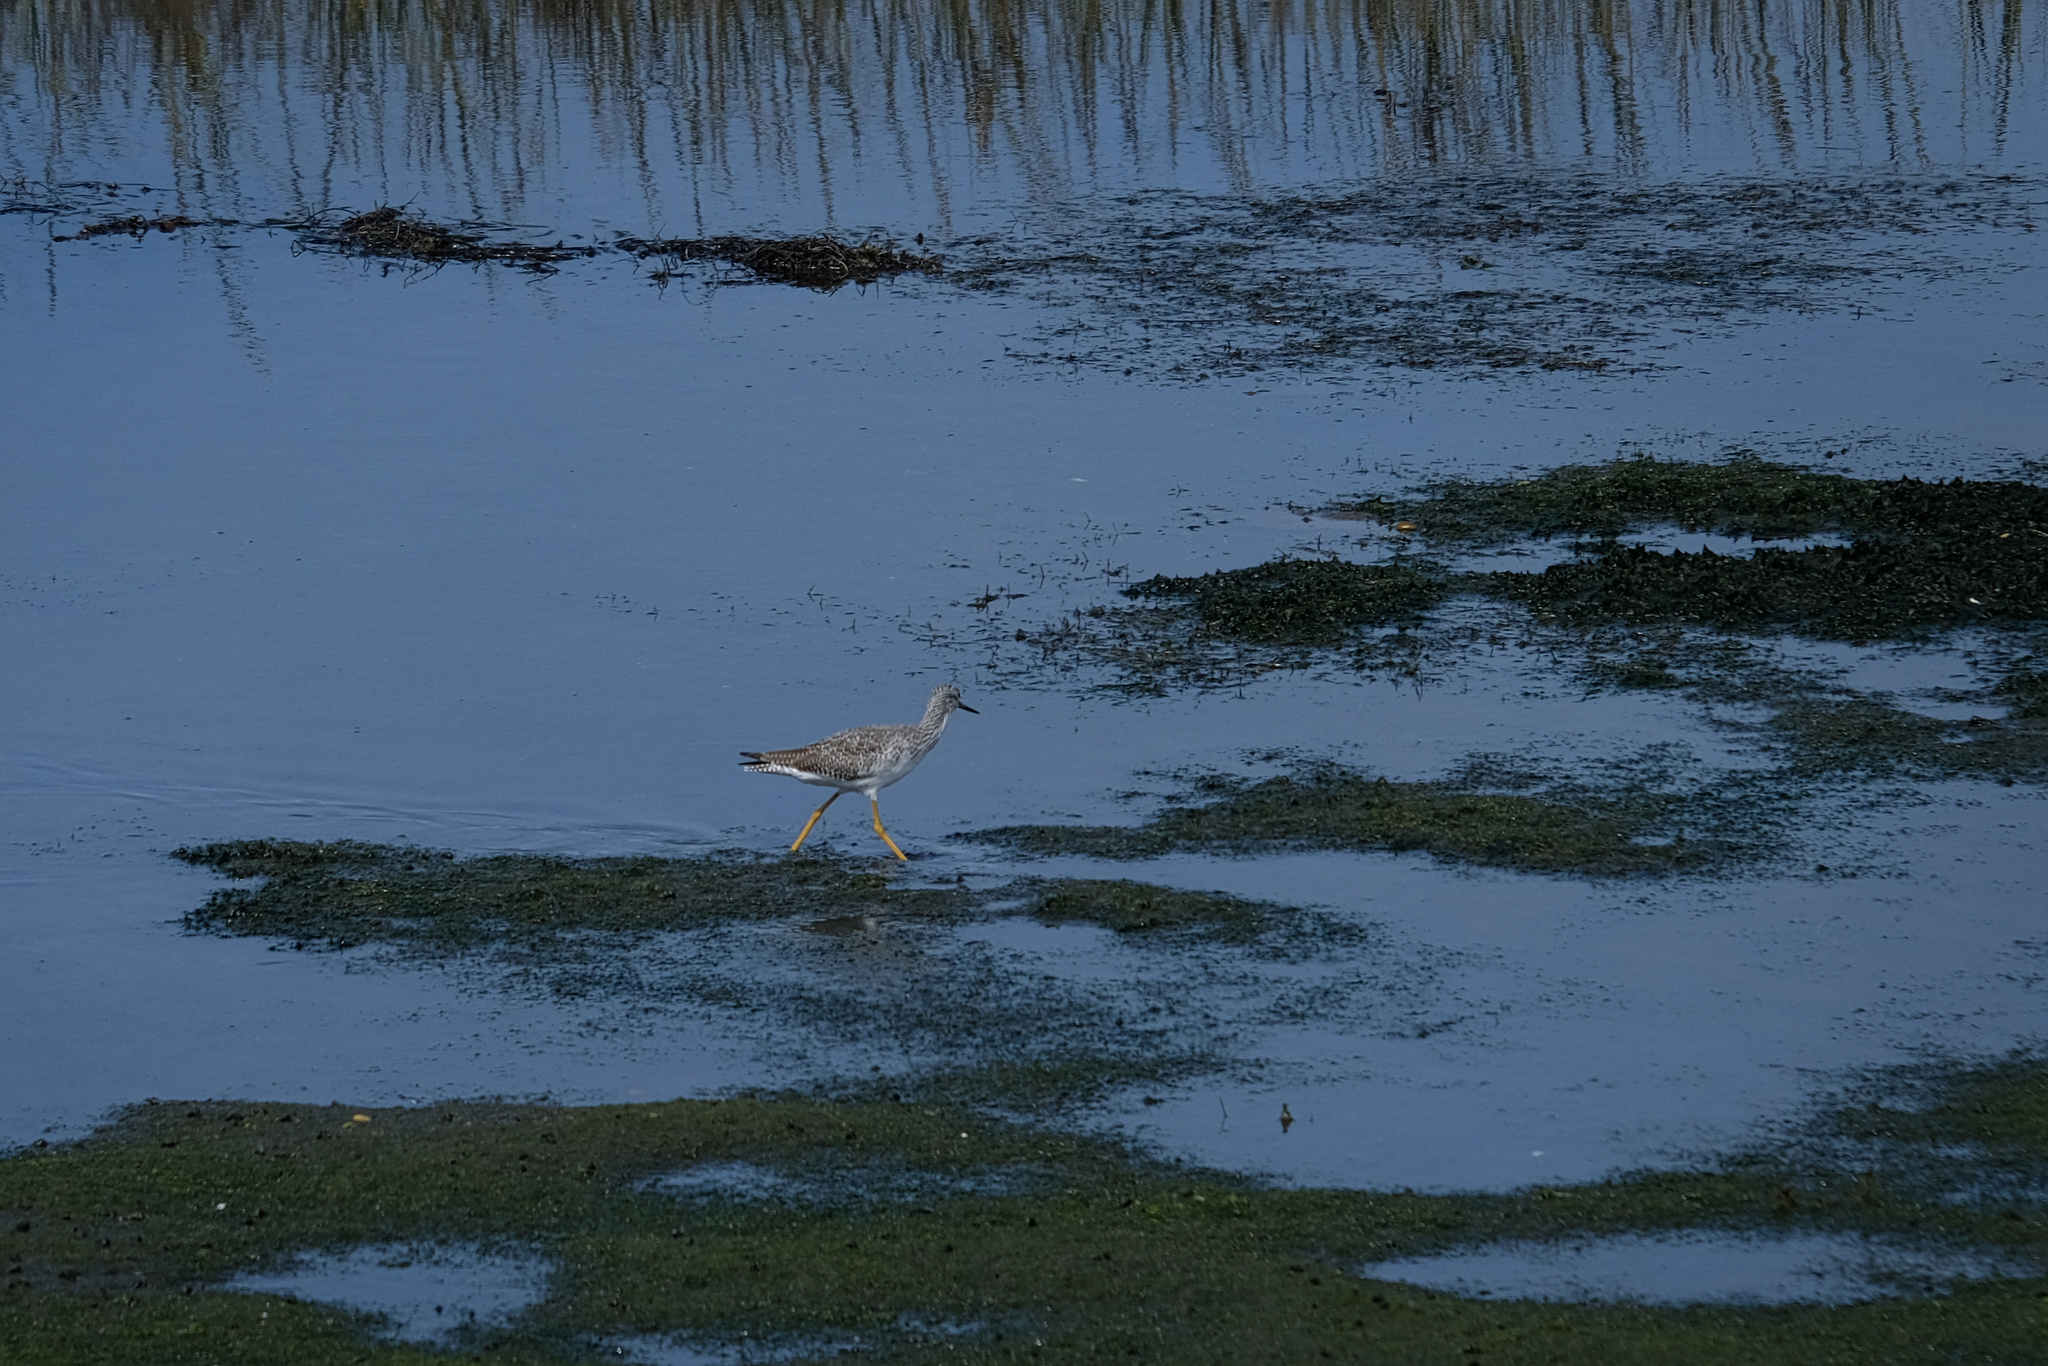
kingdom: Animalia
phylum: Chordata
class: Aves
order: Charadriiformes
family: Scolopacidae
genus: Tringa
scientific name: Tringa melanoleuca
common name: Greater yellowlegs
